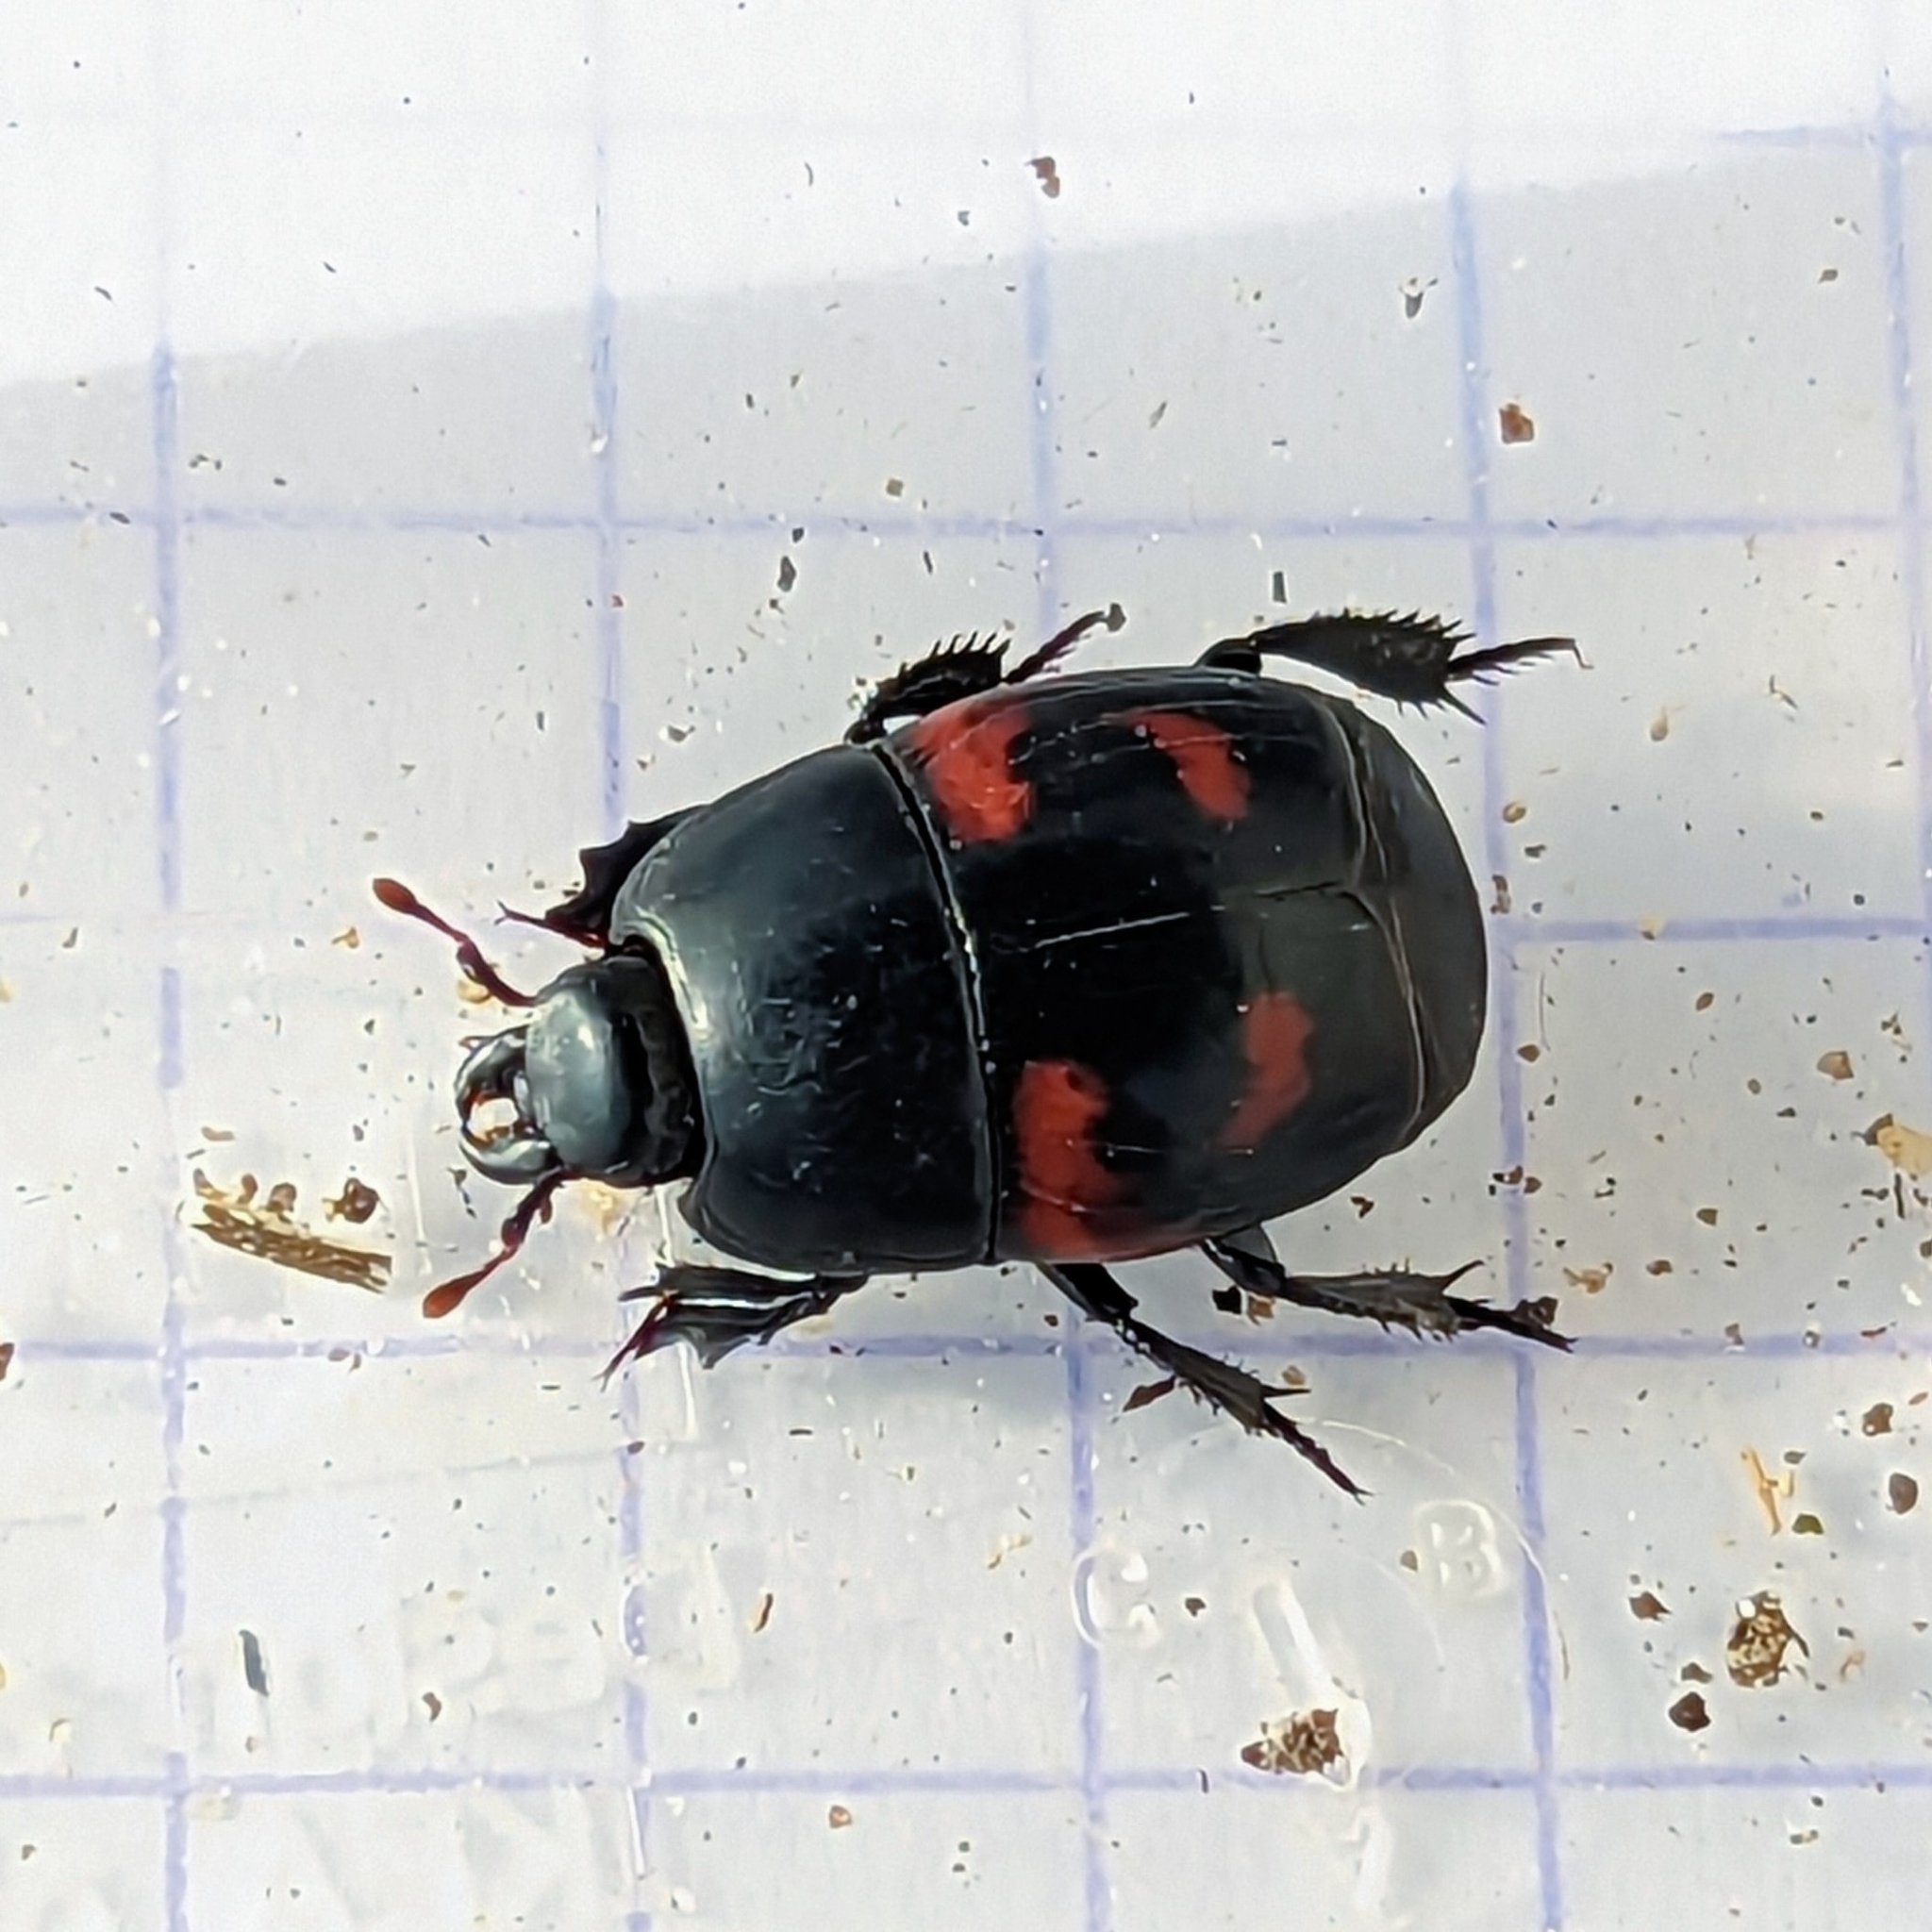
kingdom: Animalia
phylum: Arthropoda
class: Insecta
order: Coleoptera
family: Histeridae
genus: Hister
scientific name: Hister quadrimaculatus
